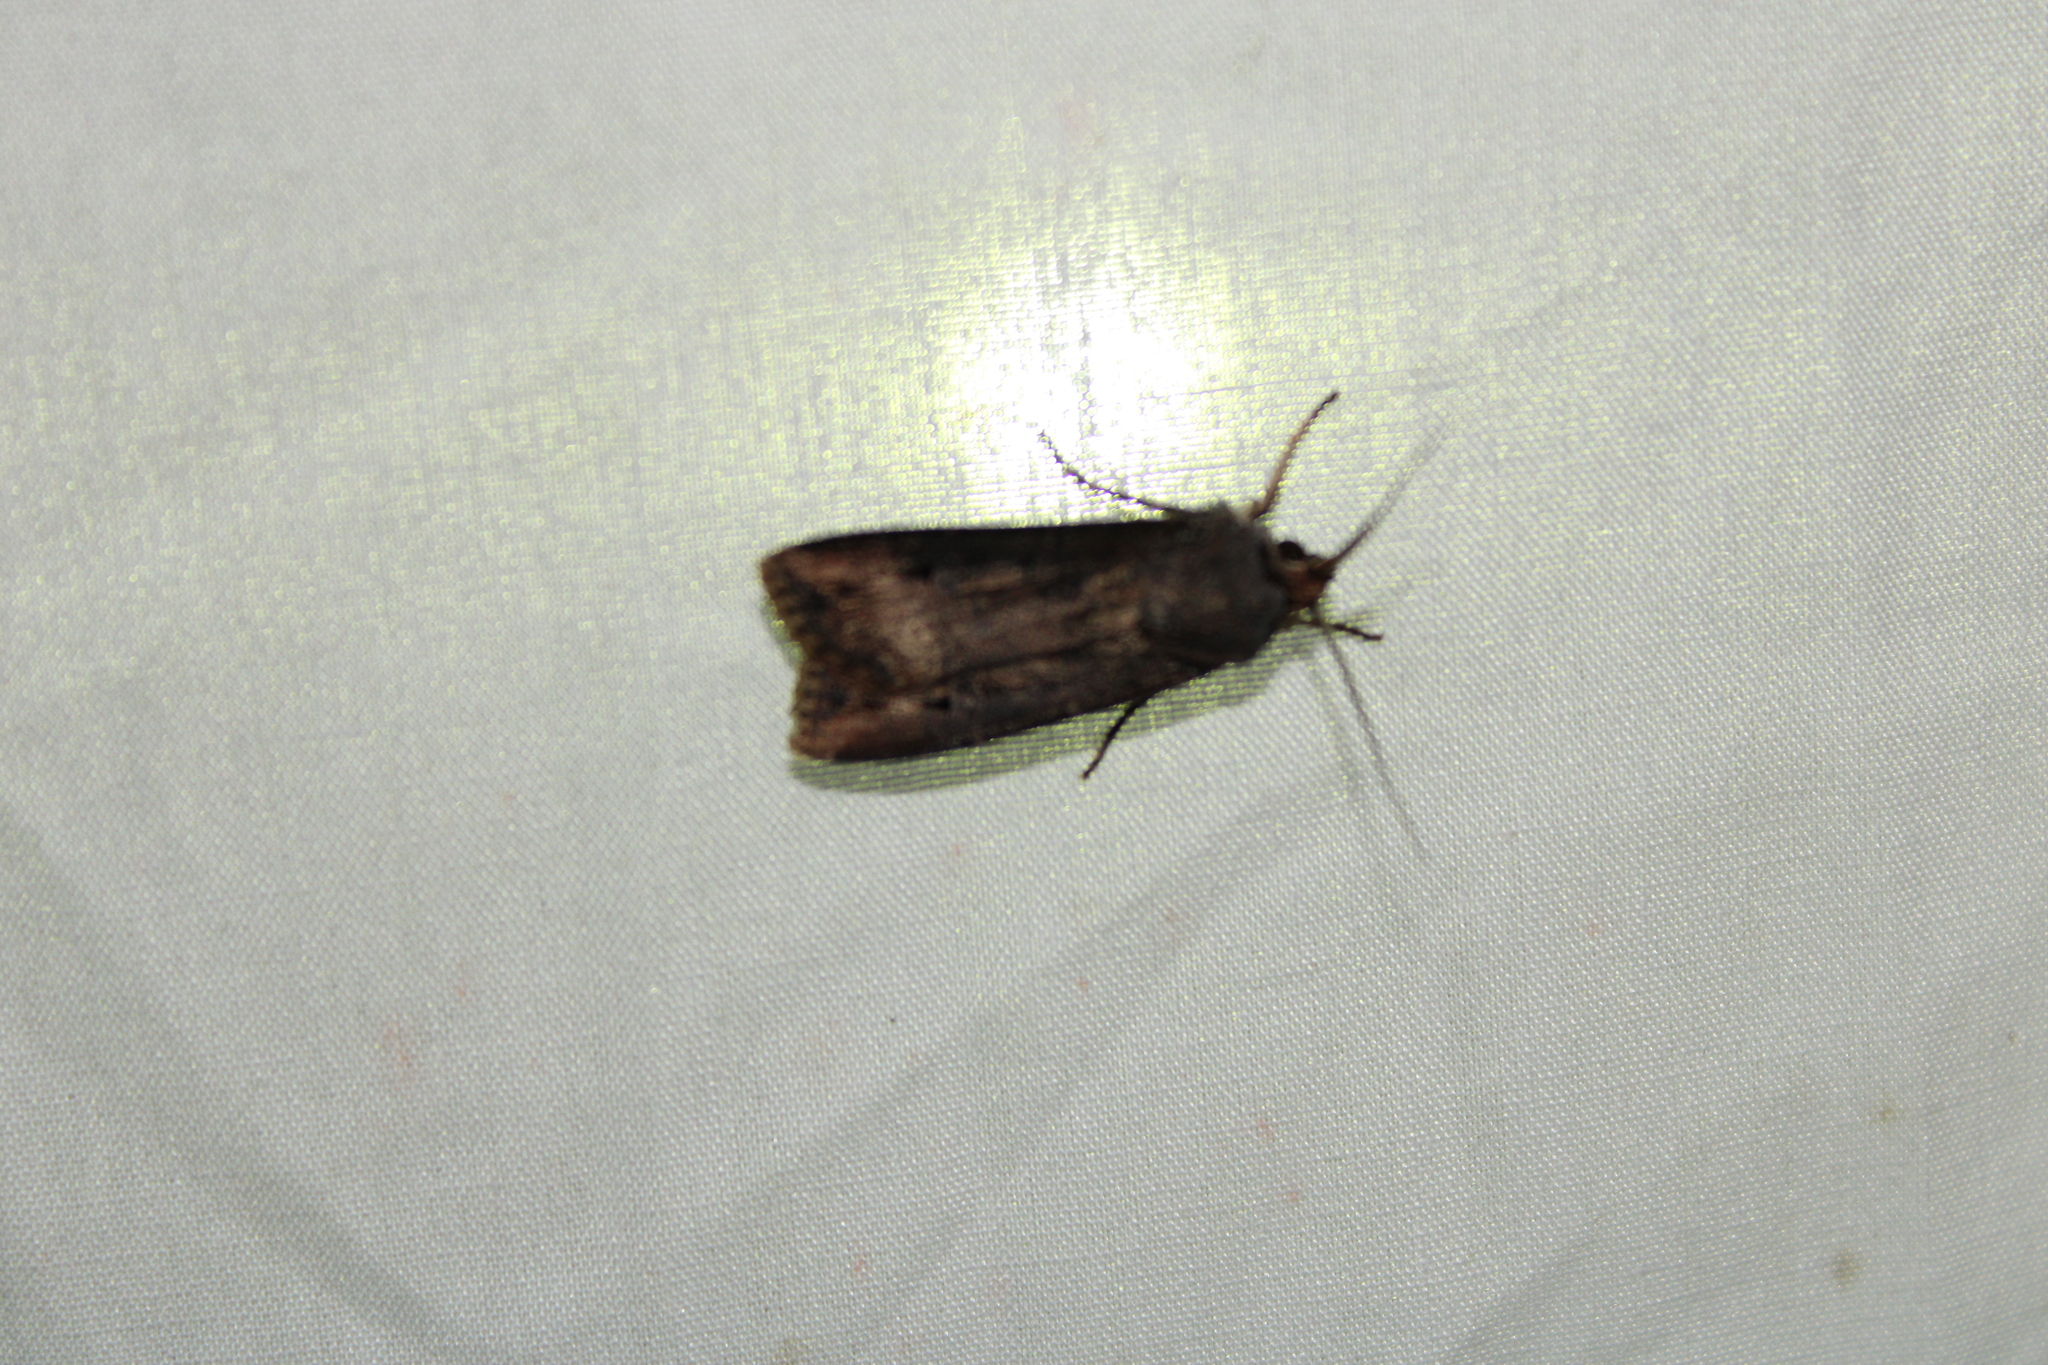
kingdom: Animalia
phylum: Arthropoda
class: Insecta
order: Lepidoptera
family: Noctuidae
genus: Agrotis
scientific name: Agrotis ipsilon
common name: Dark sword-grass
